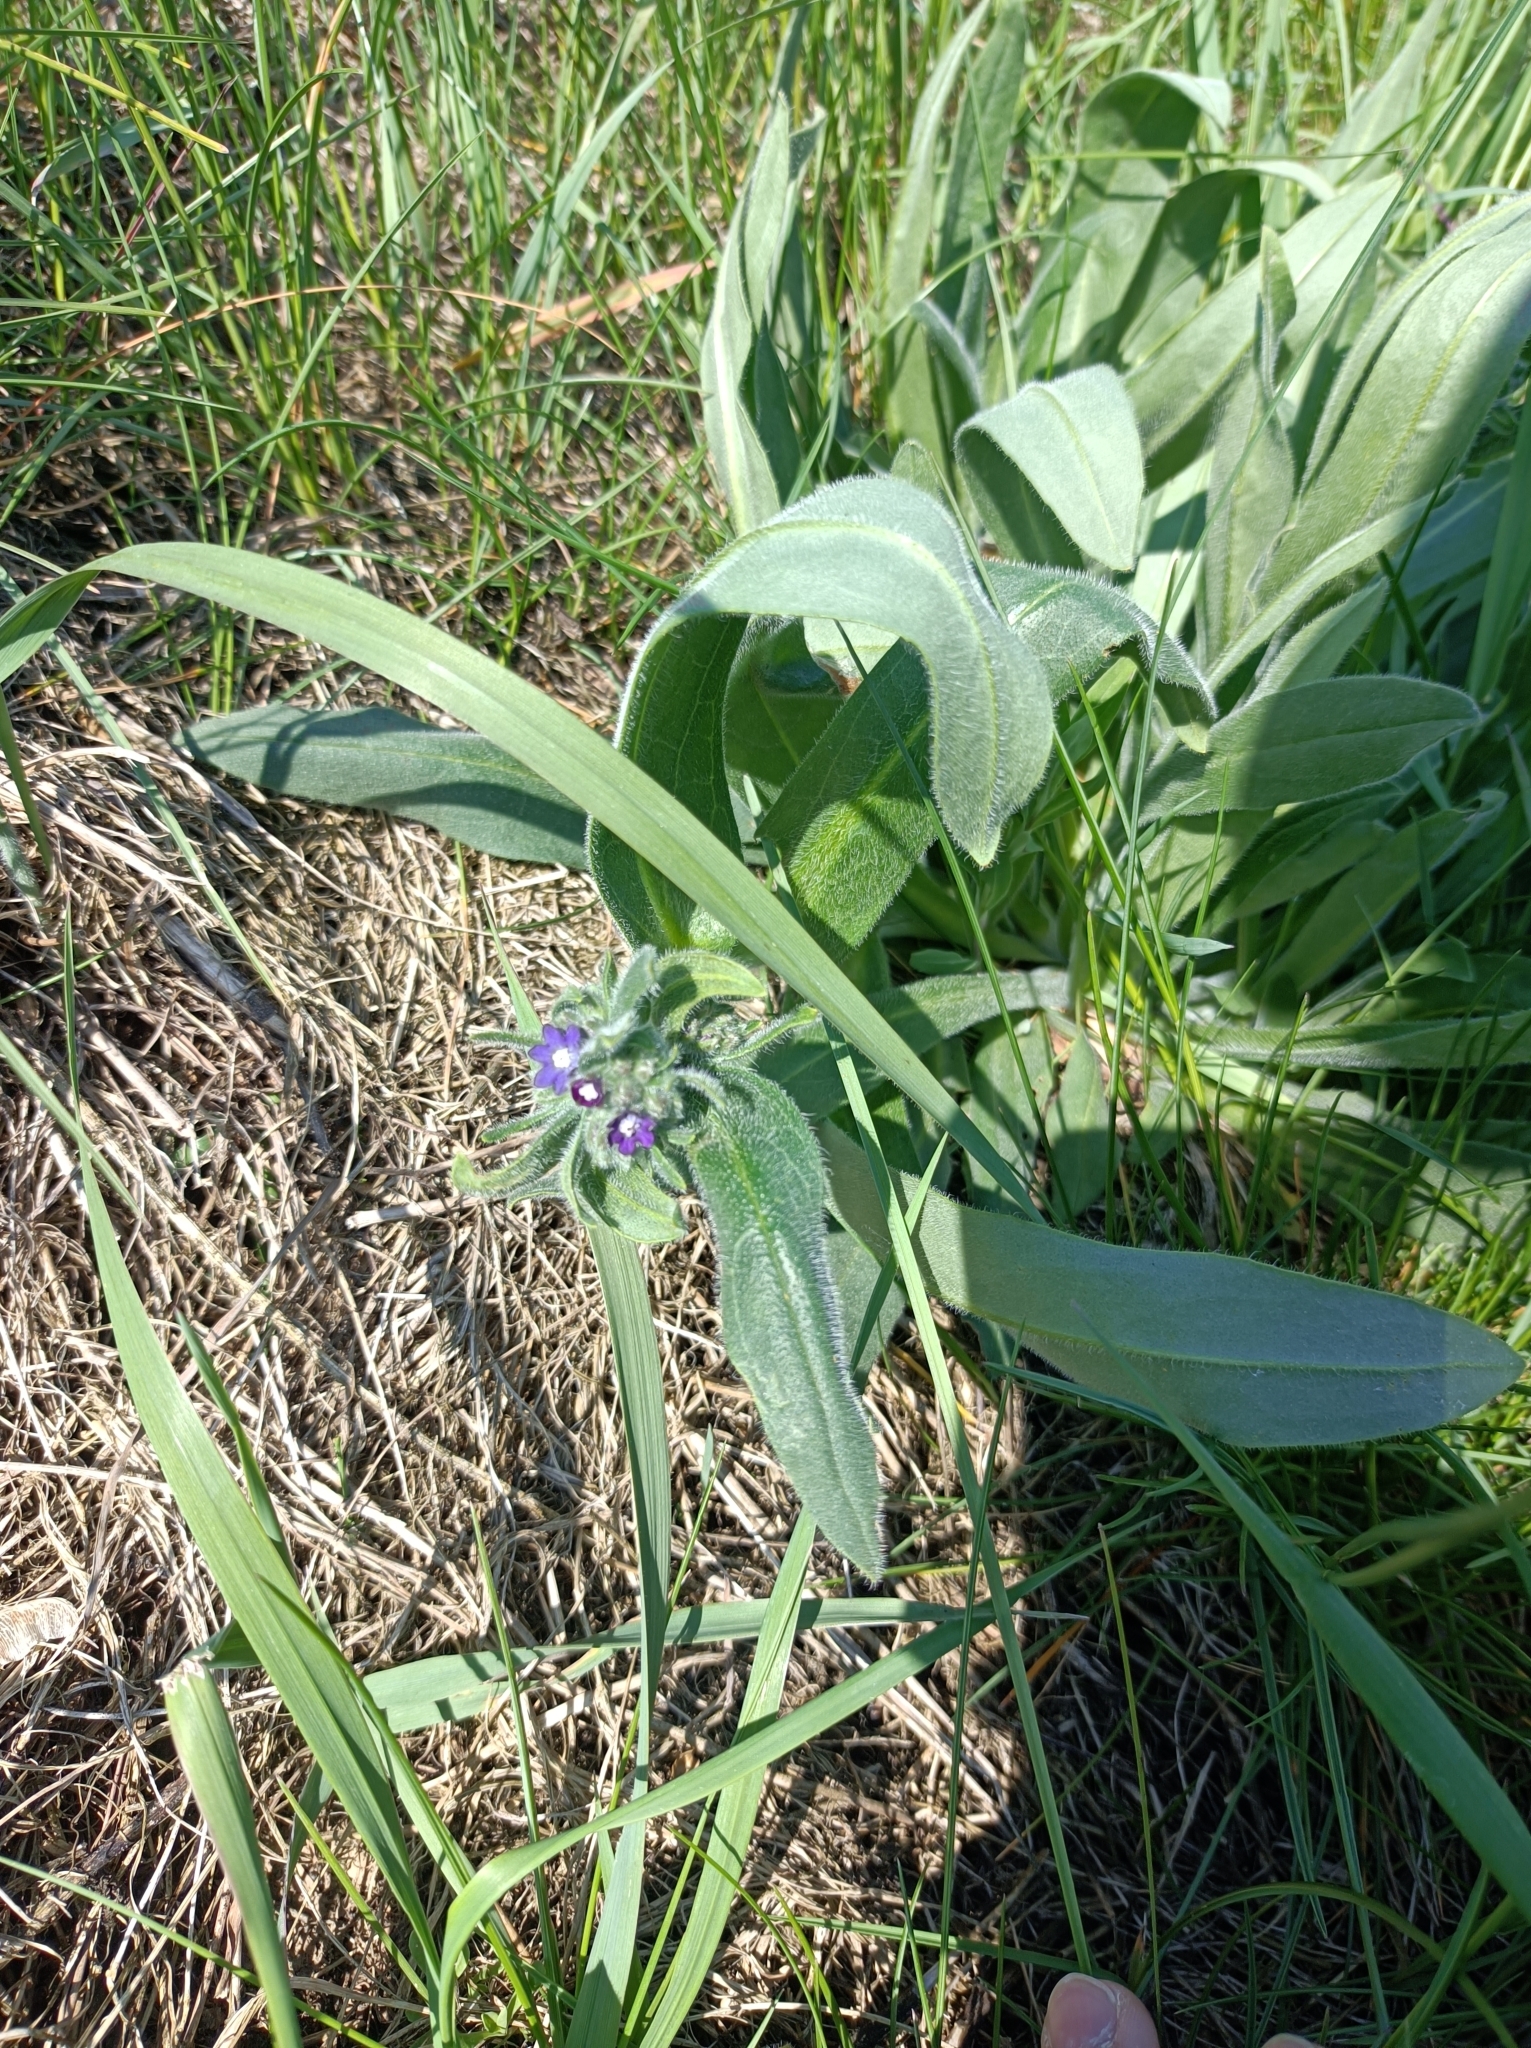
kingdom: Plantae
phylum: Tracheophyta
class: Magnoliopsida
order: Boraginales
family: Boraginaceae
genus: Anchusa
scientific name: Anchusa officinalis
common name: Alkanet
